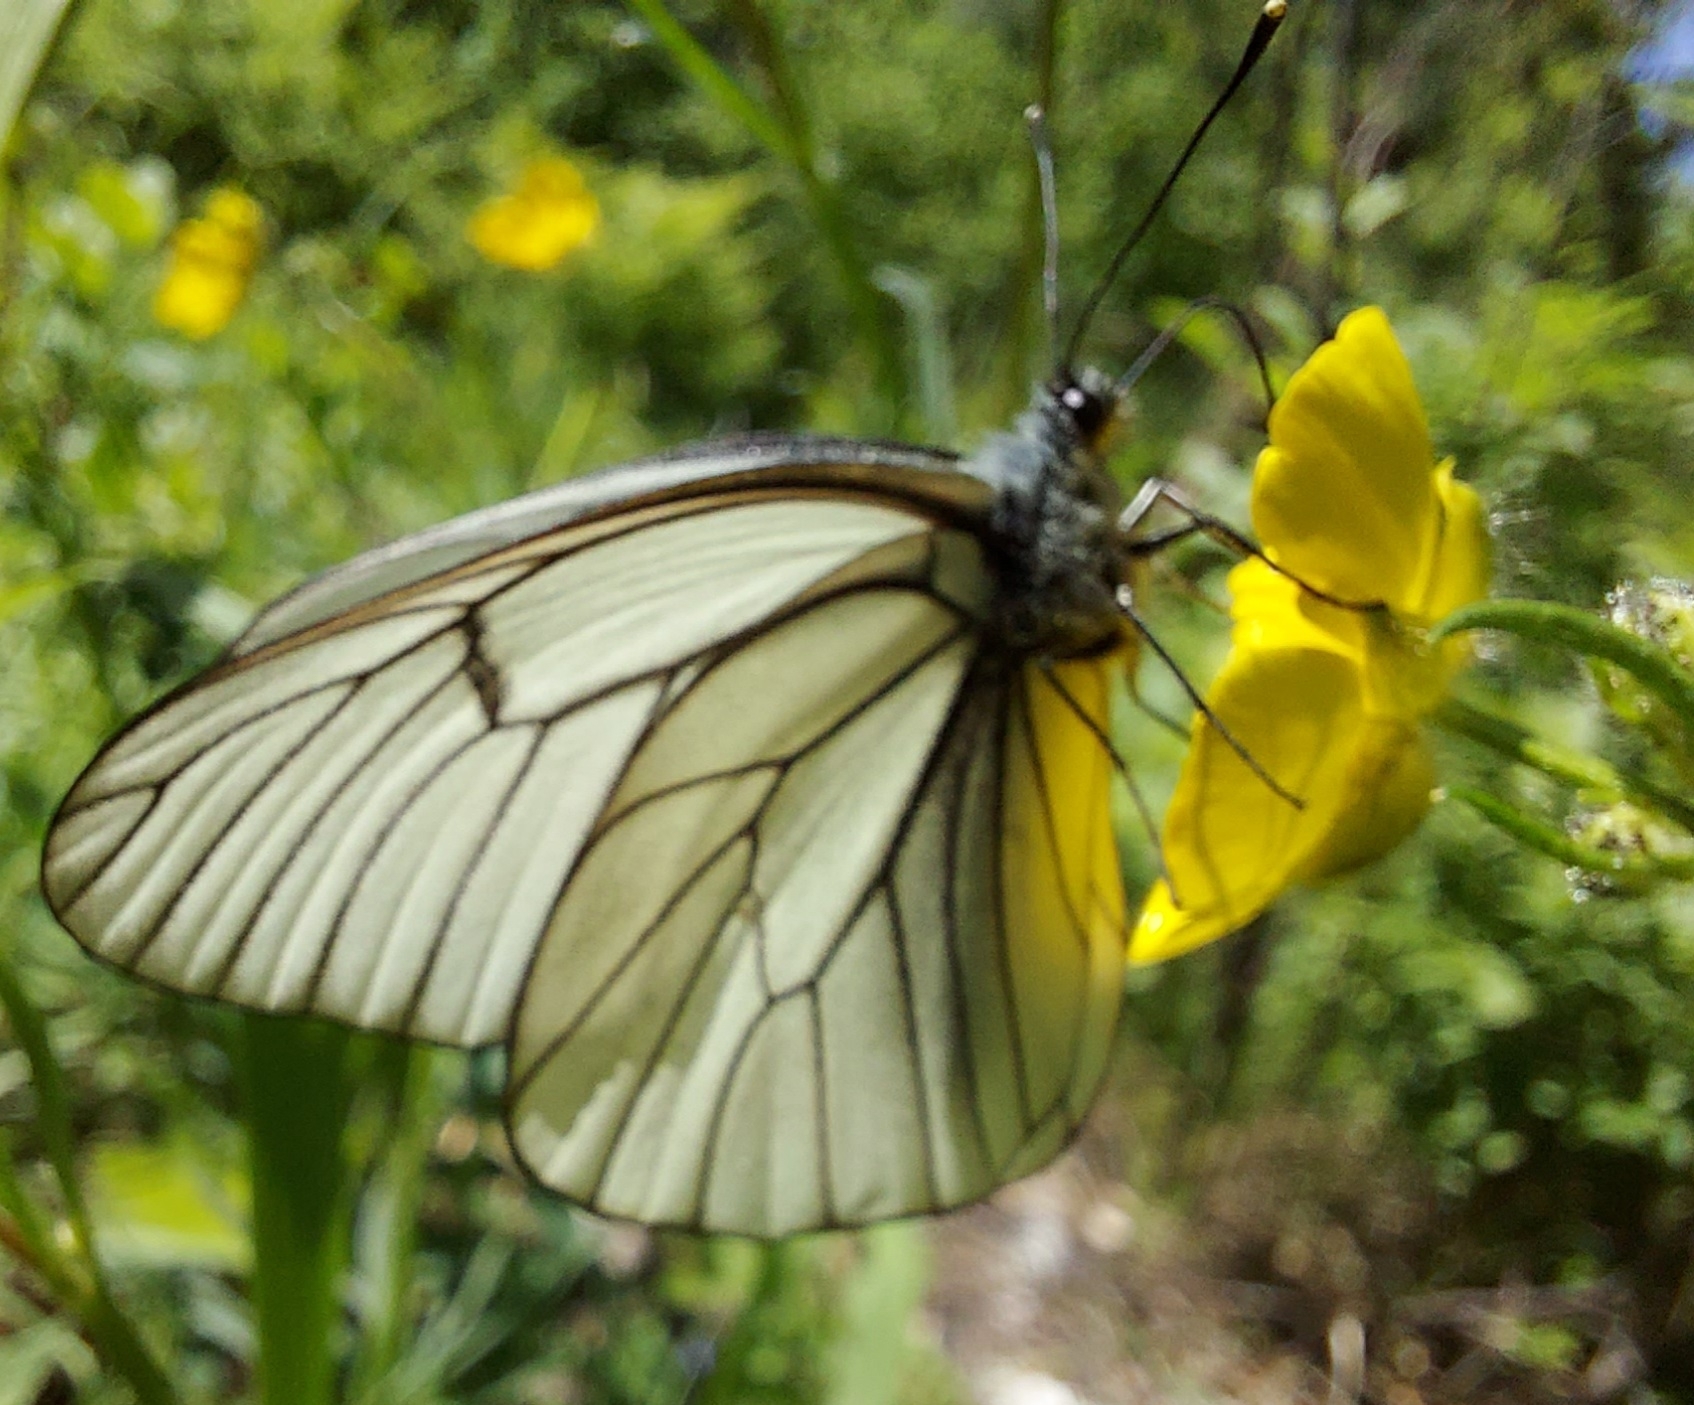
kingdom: Animalia
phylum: Arthropoda
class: Insecta
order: Lepidoptera
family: Pieridae
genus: Aporia
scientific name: Aporia crataegi
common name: Black-veined white
